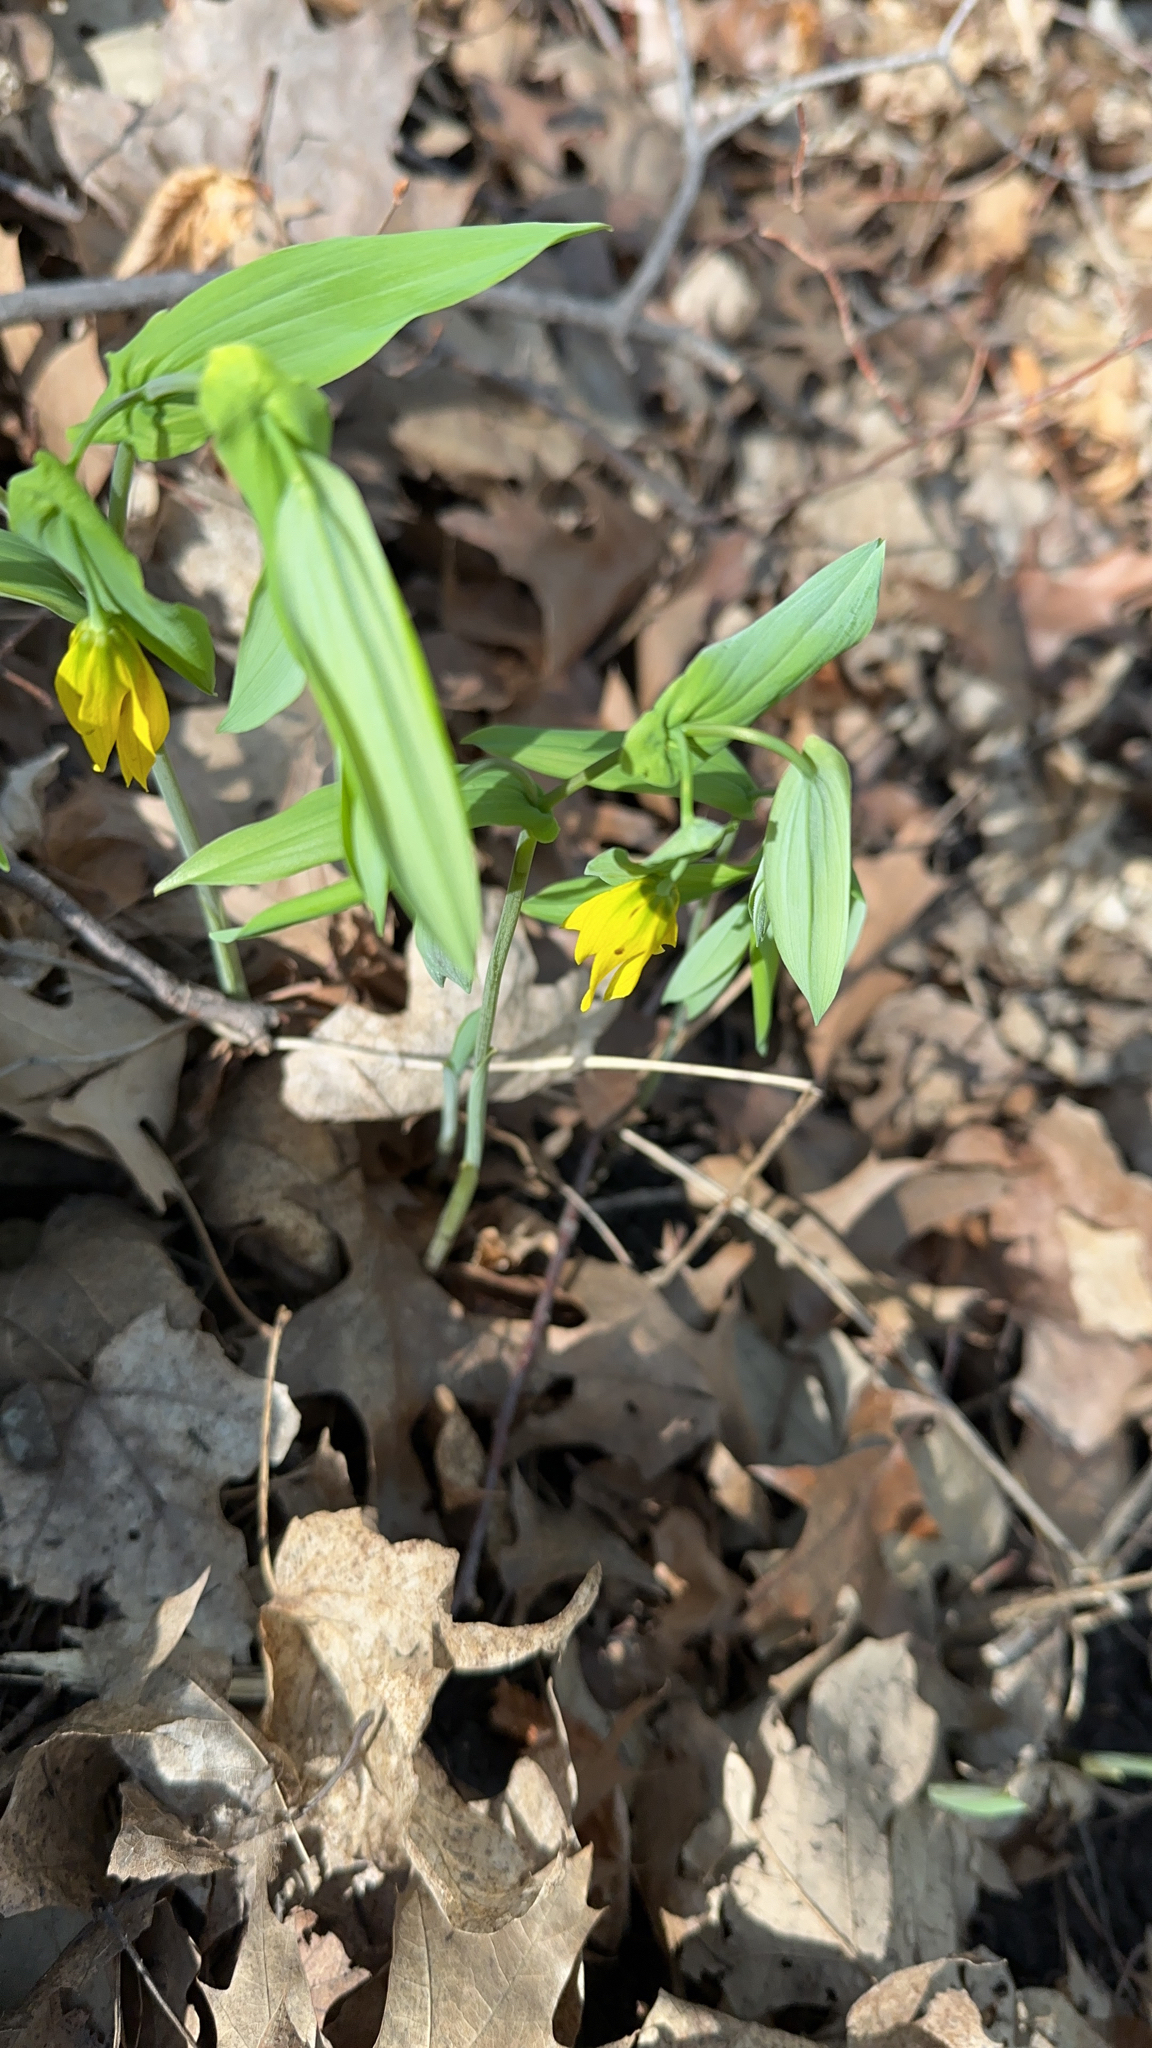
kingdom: Plantae
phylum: Tracheophyta
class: Liliopsida
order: Liliales
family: Colchicaceae
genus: Uvularia
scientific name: Uvularia grandiflora
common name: Bellwort
